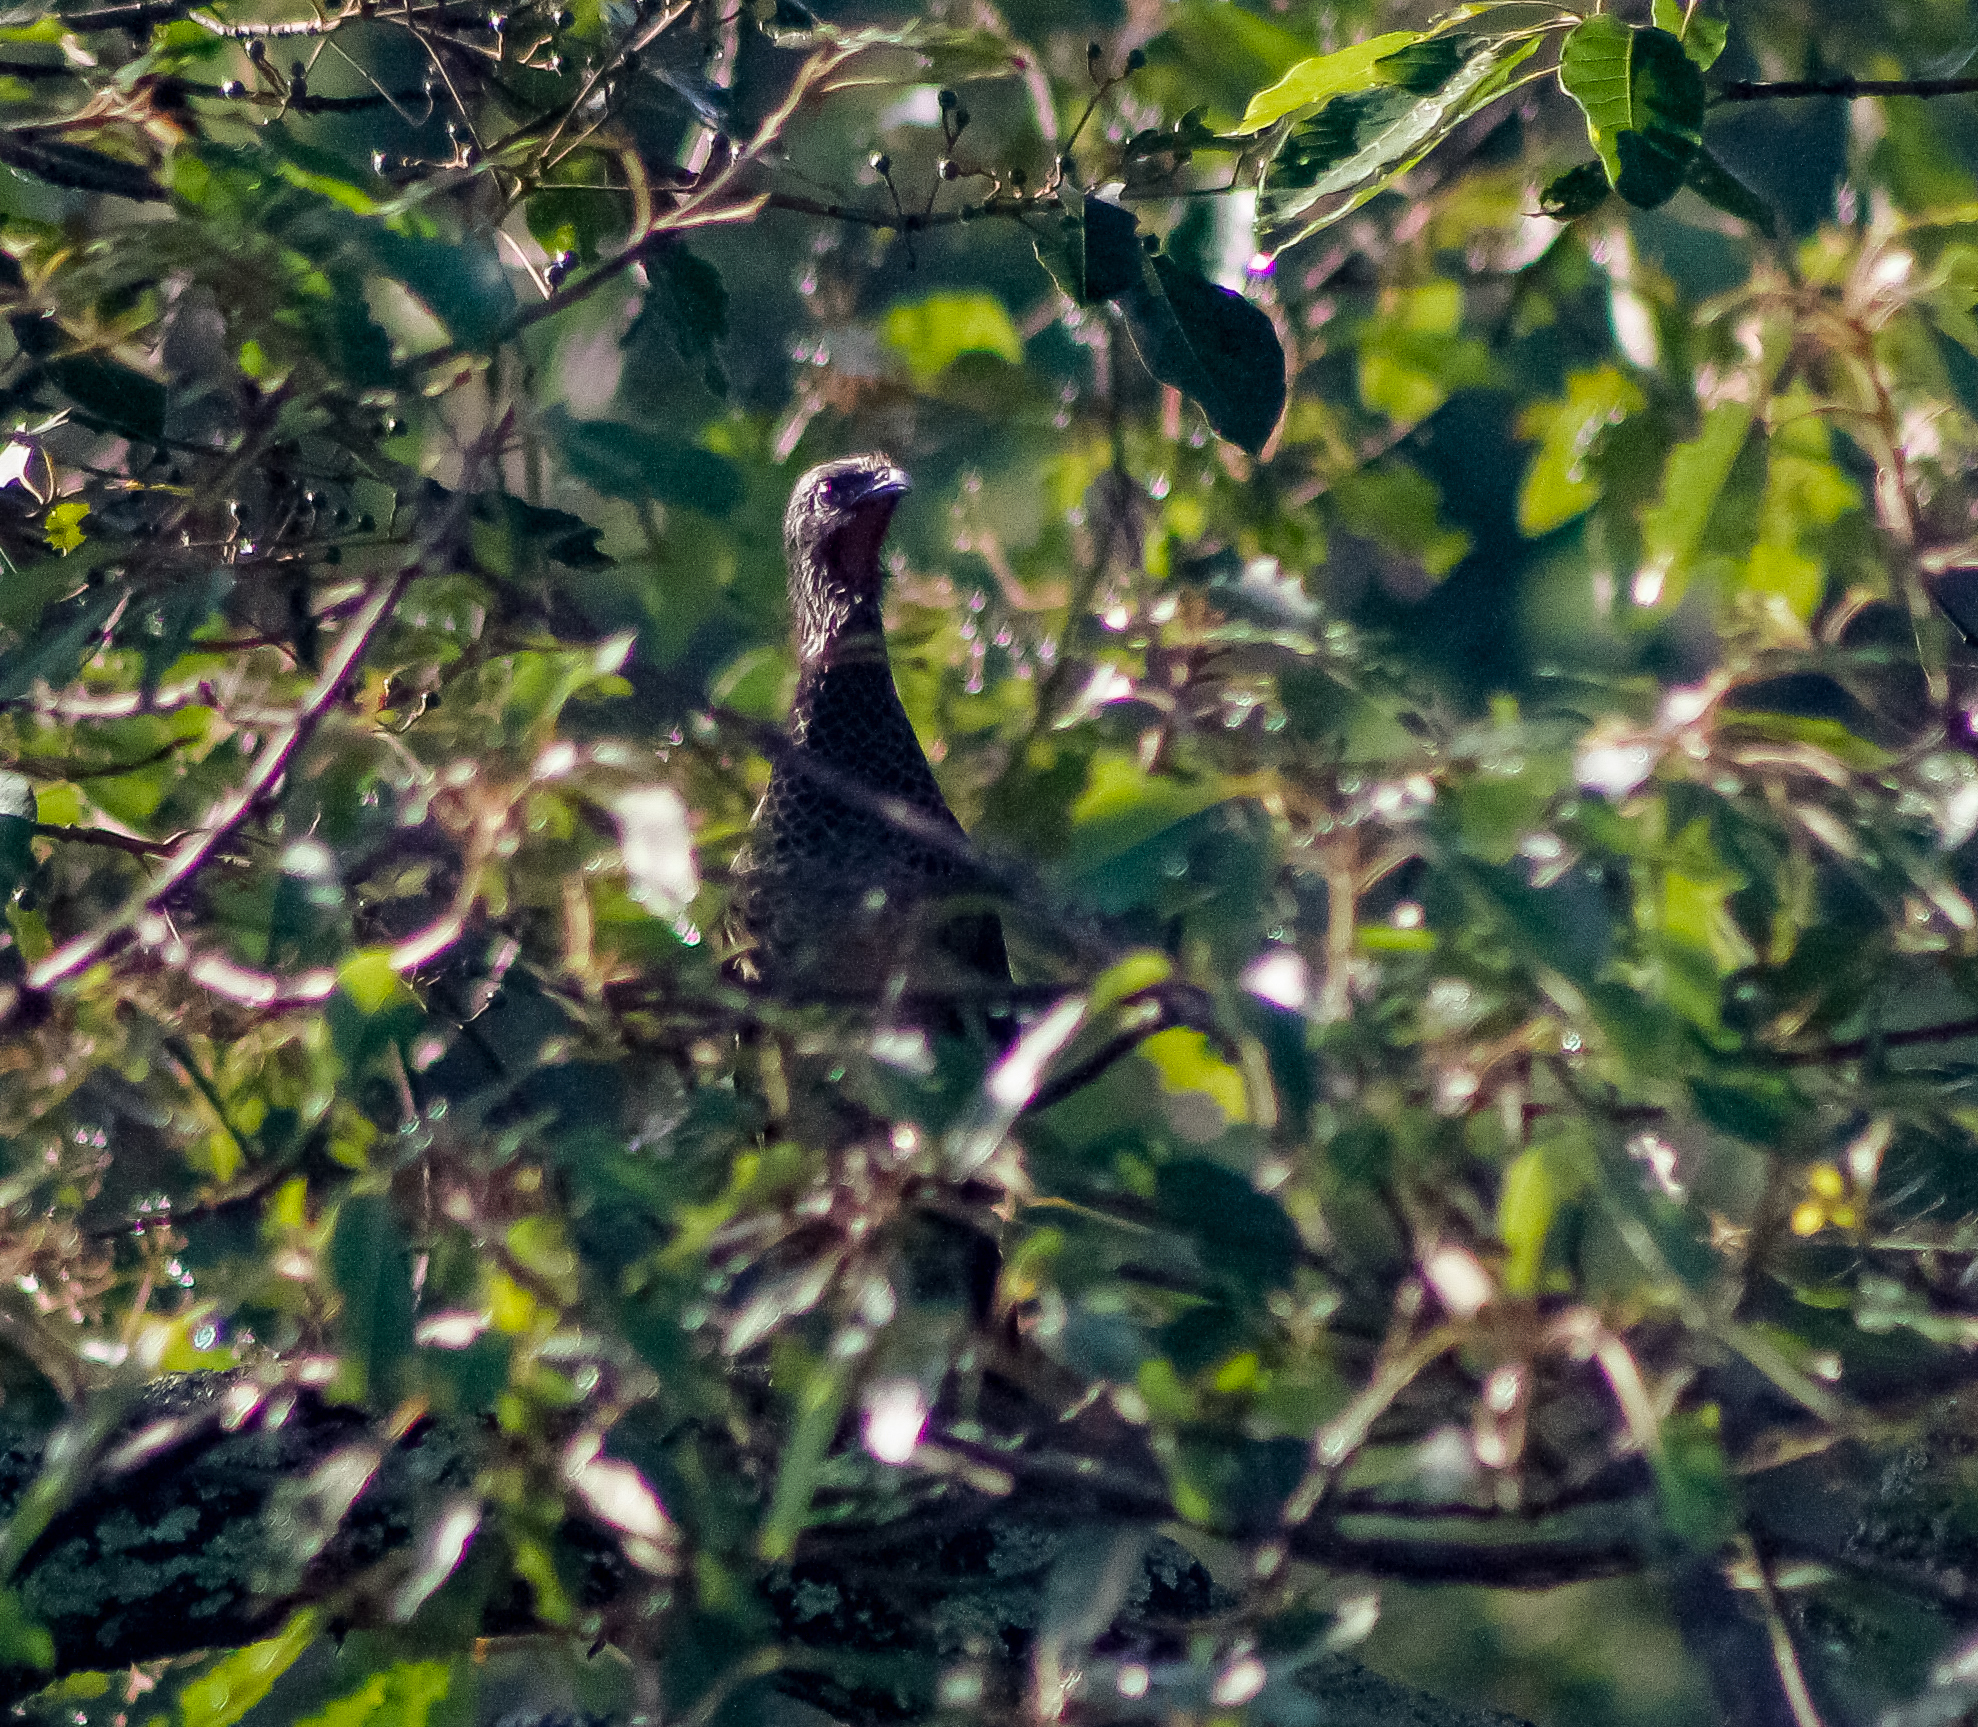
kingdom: Animalia
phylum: Chordata
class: Aves
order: Galliformes
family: Cracidae
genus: Ortalis
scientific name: Ortalis columbiana
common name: Colombian chachalaca
